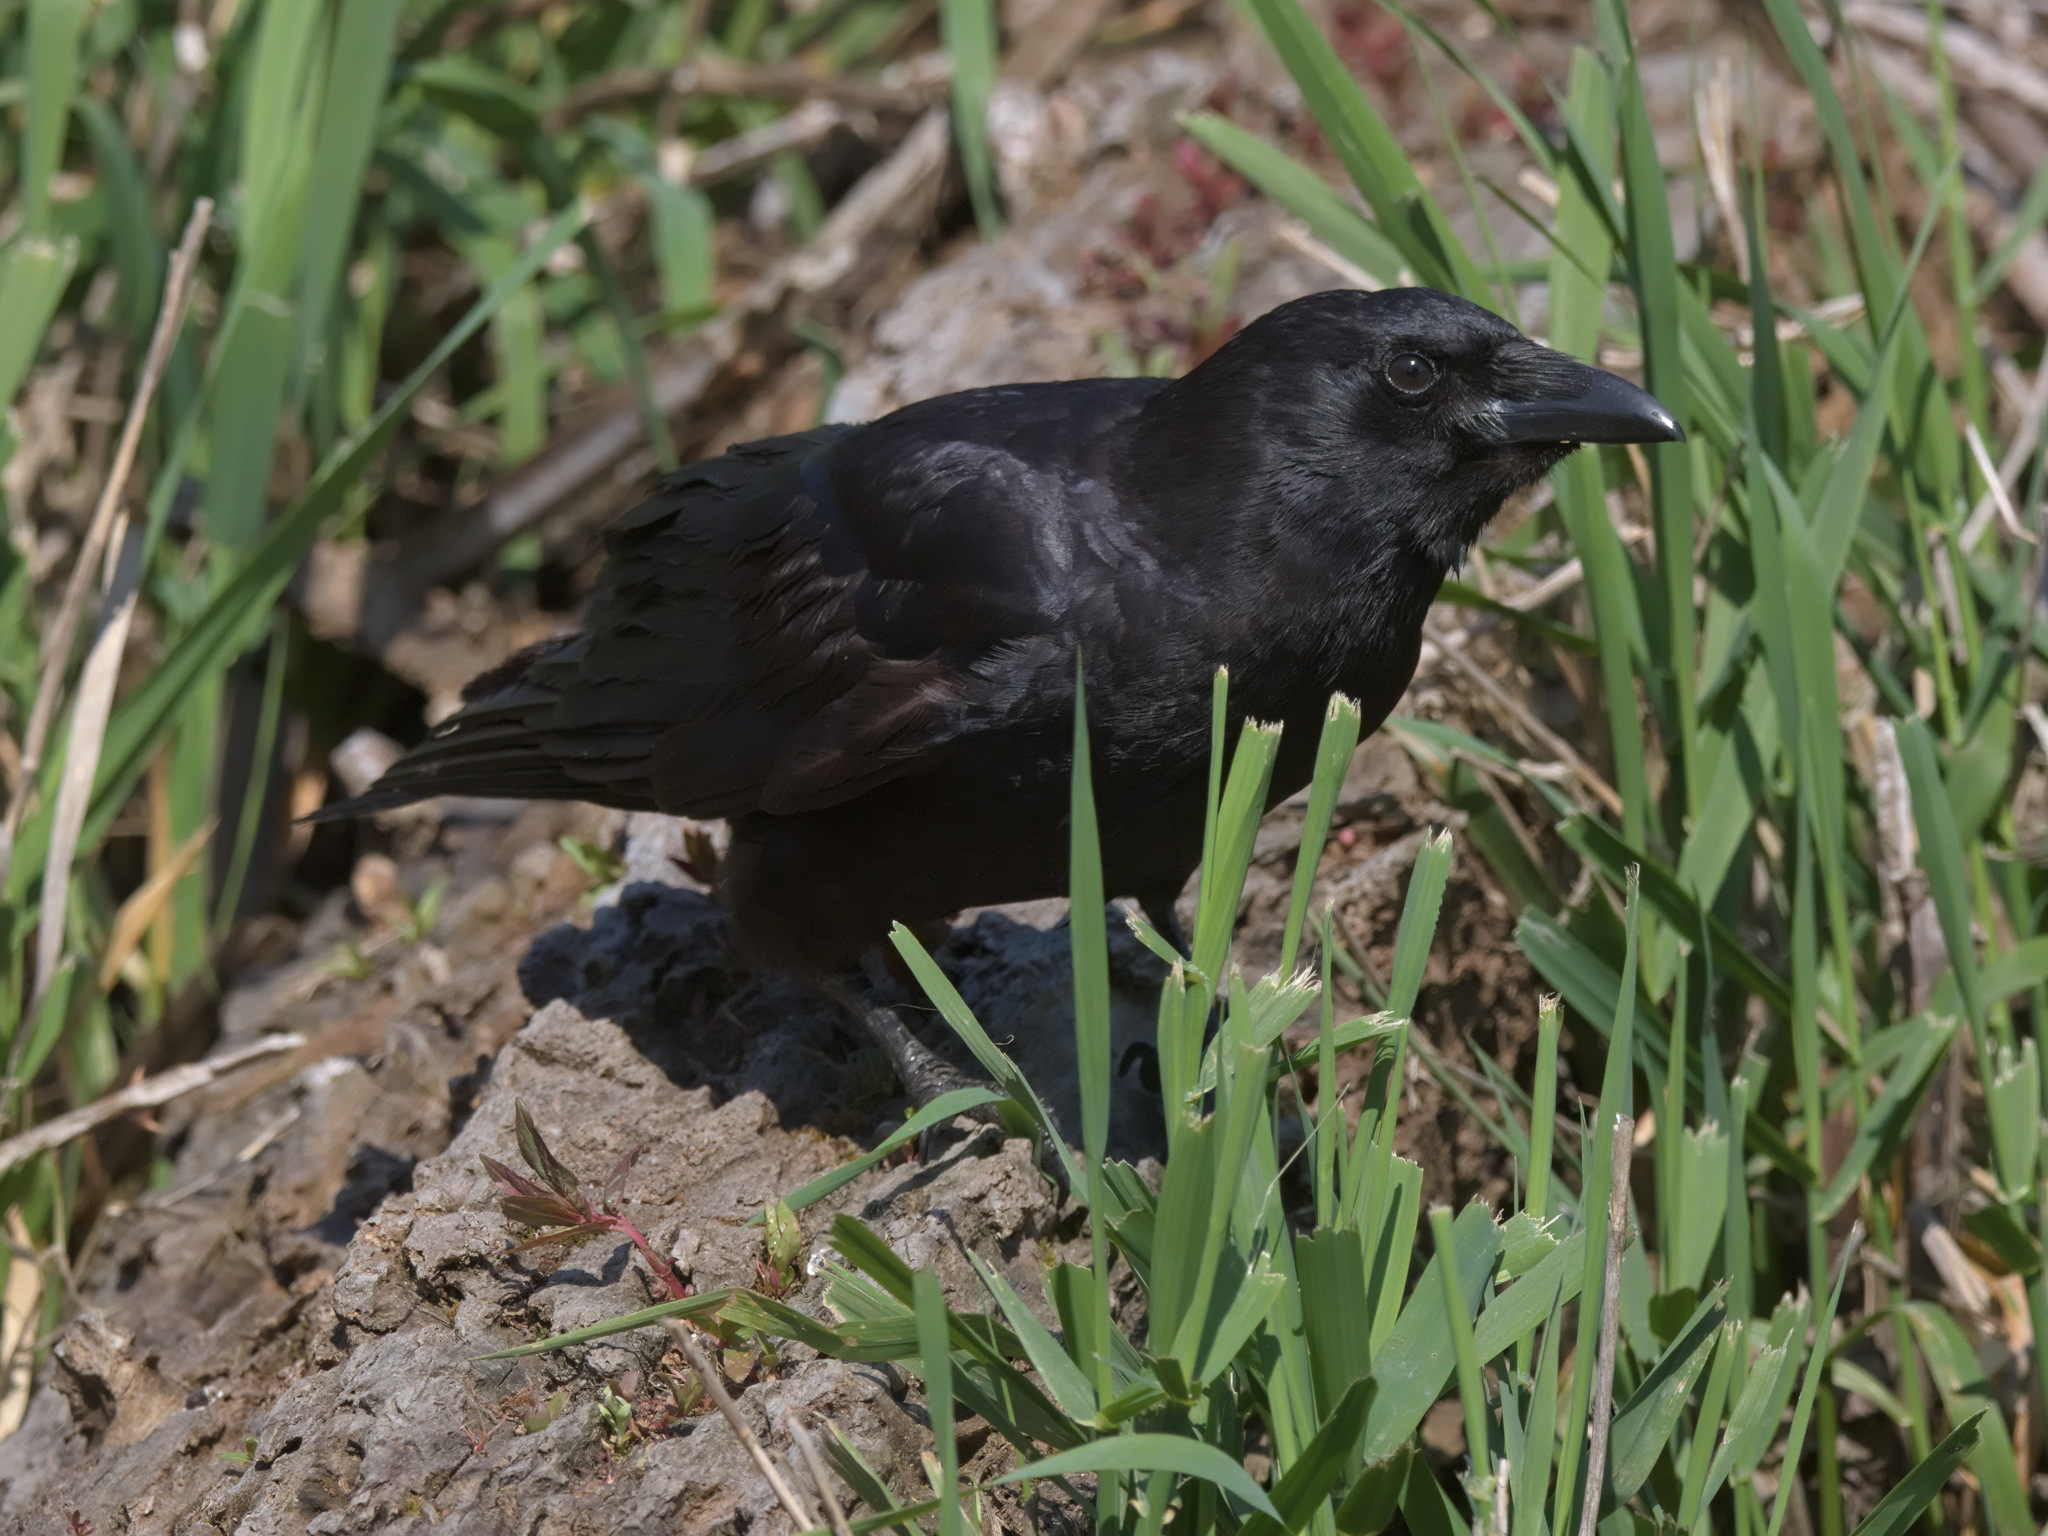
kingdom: Animalia
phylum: Chordata
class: Aves
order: Passeriformes
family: Corvidae
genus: Corvus
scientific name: Corvus brachyrhynchos
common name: American crow
